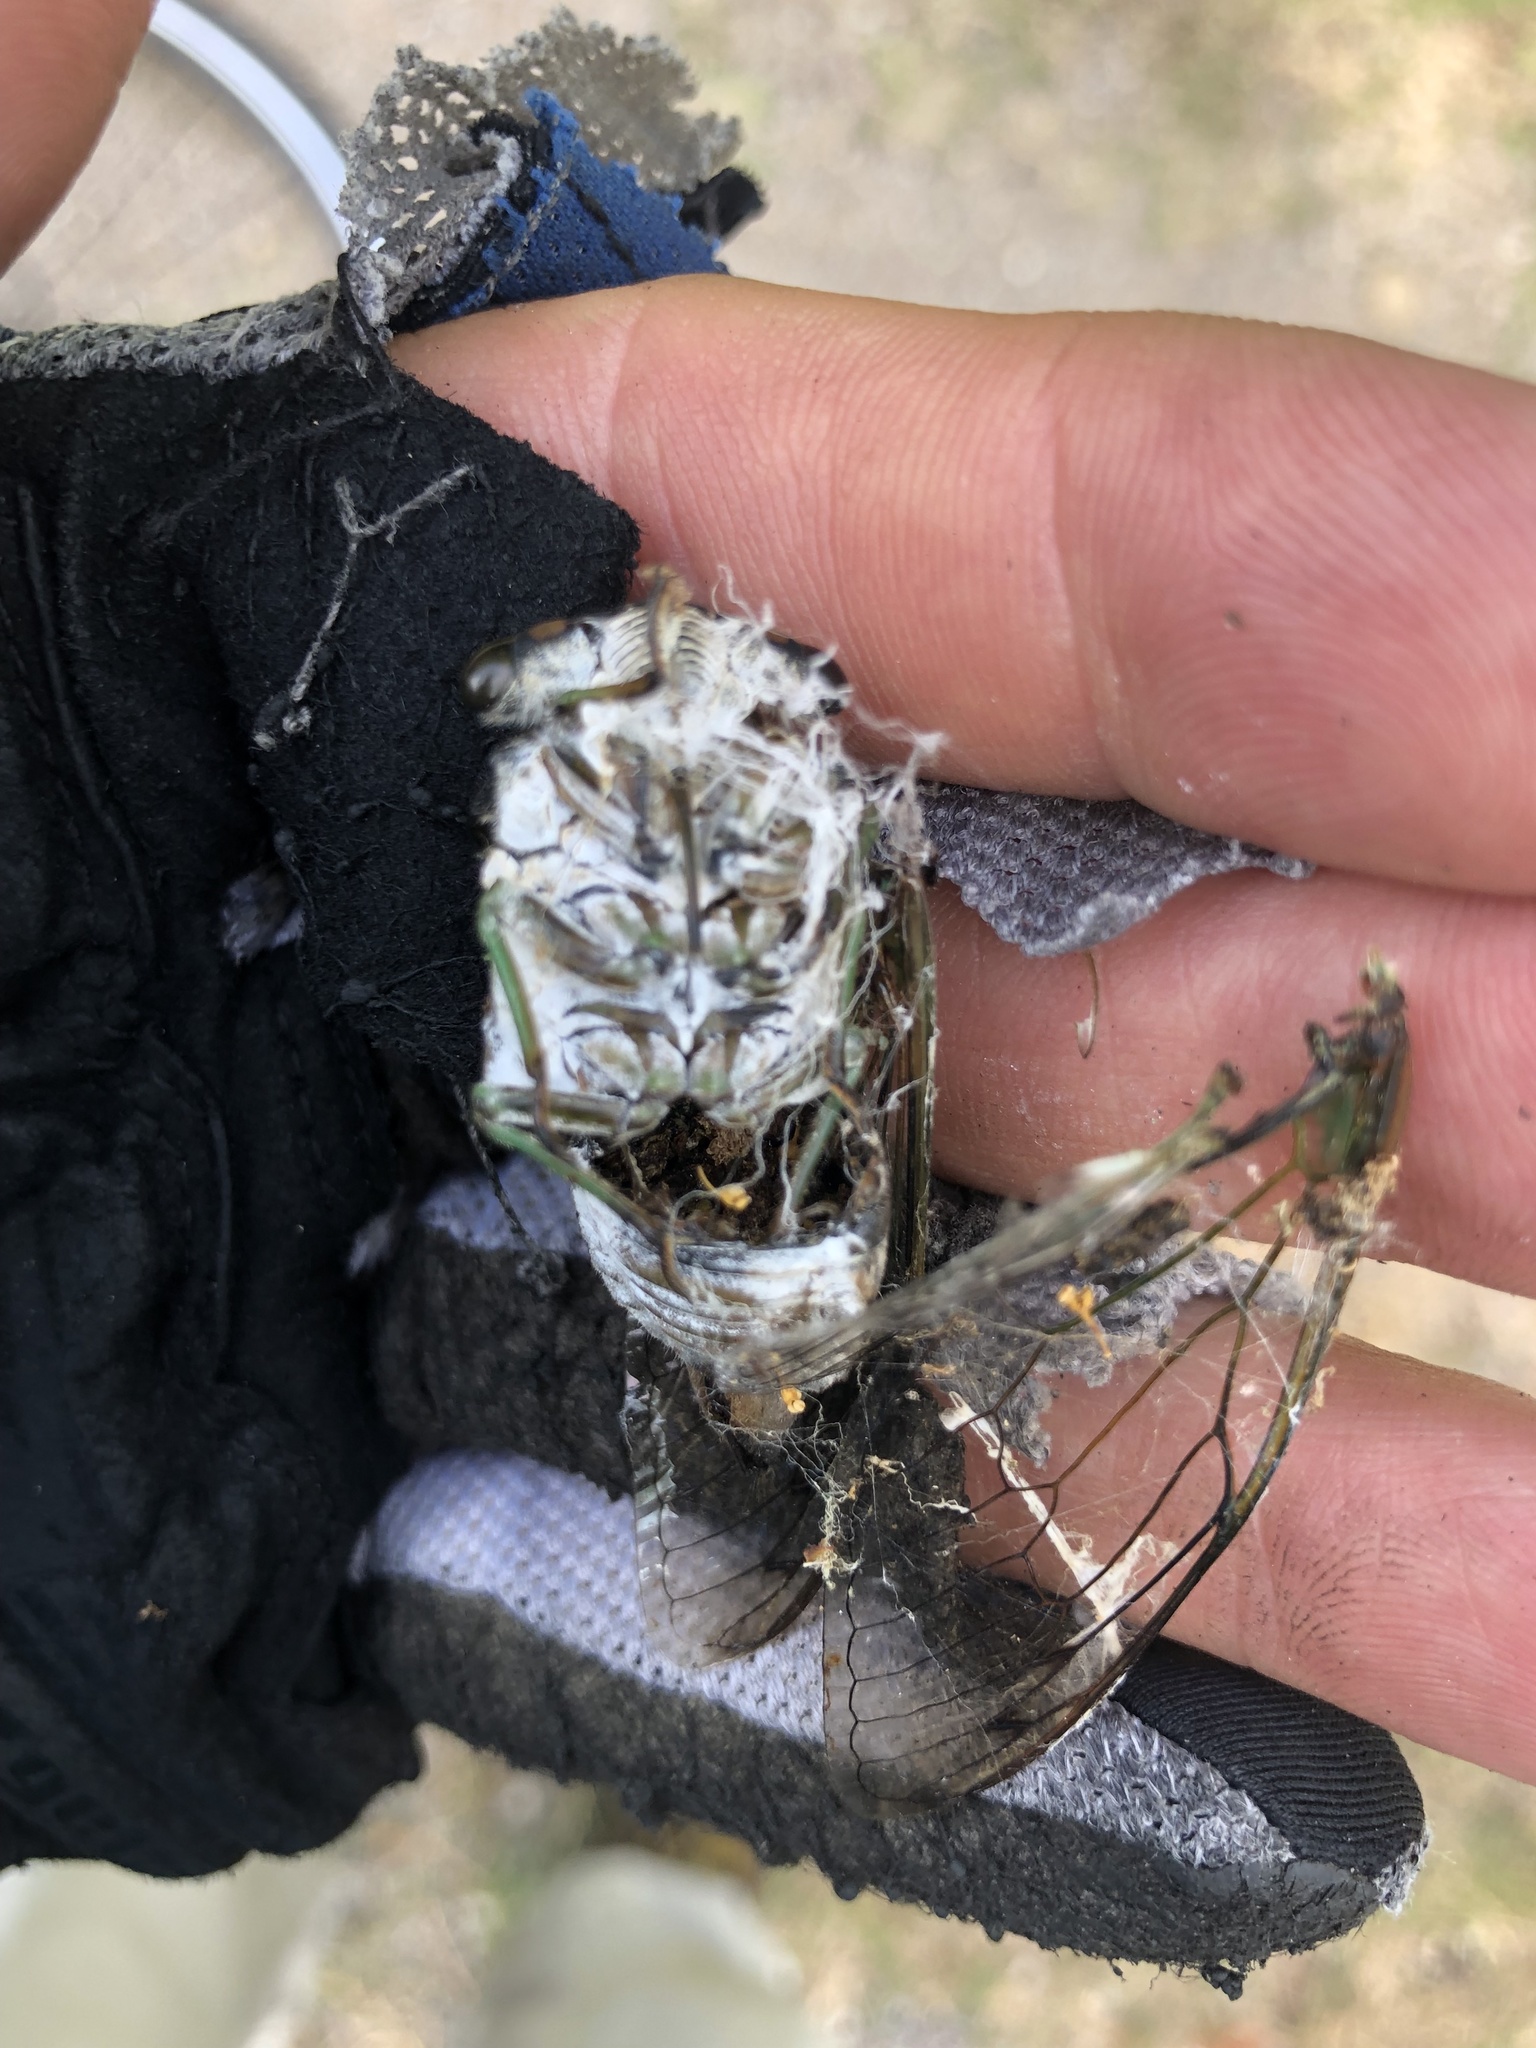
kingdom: Animalia
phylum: Arthropoda
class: Insecta
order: Hemiptera
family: Cicadidae
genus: Neotibicen
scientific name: Neotibicen tibicen
